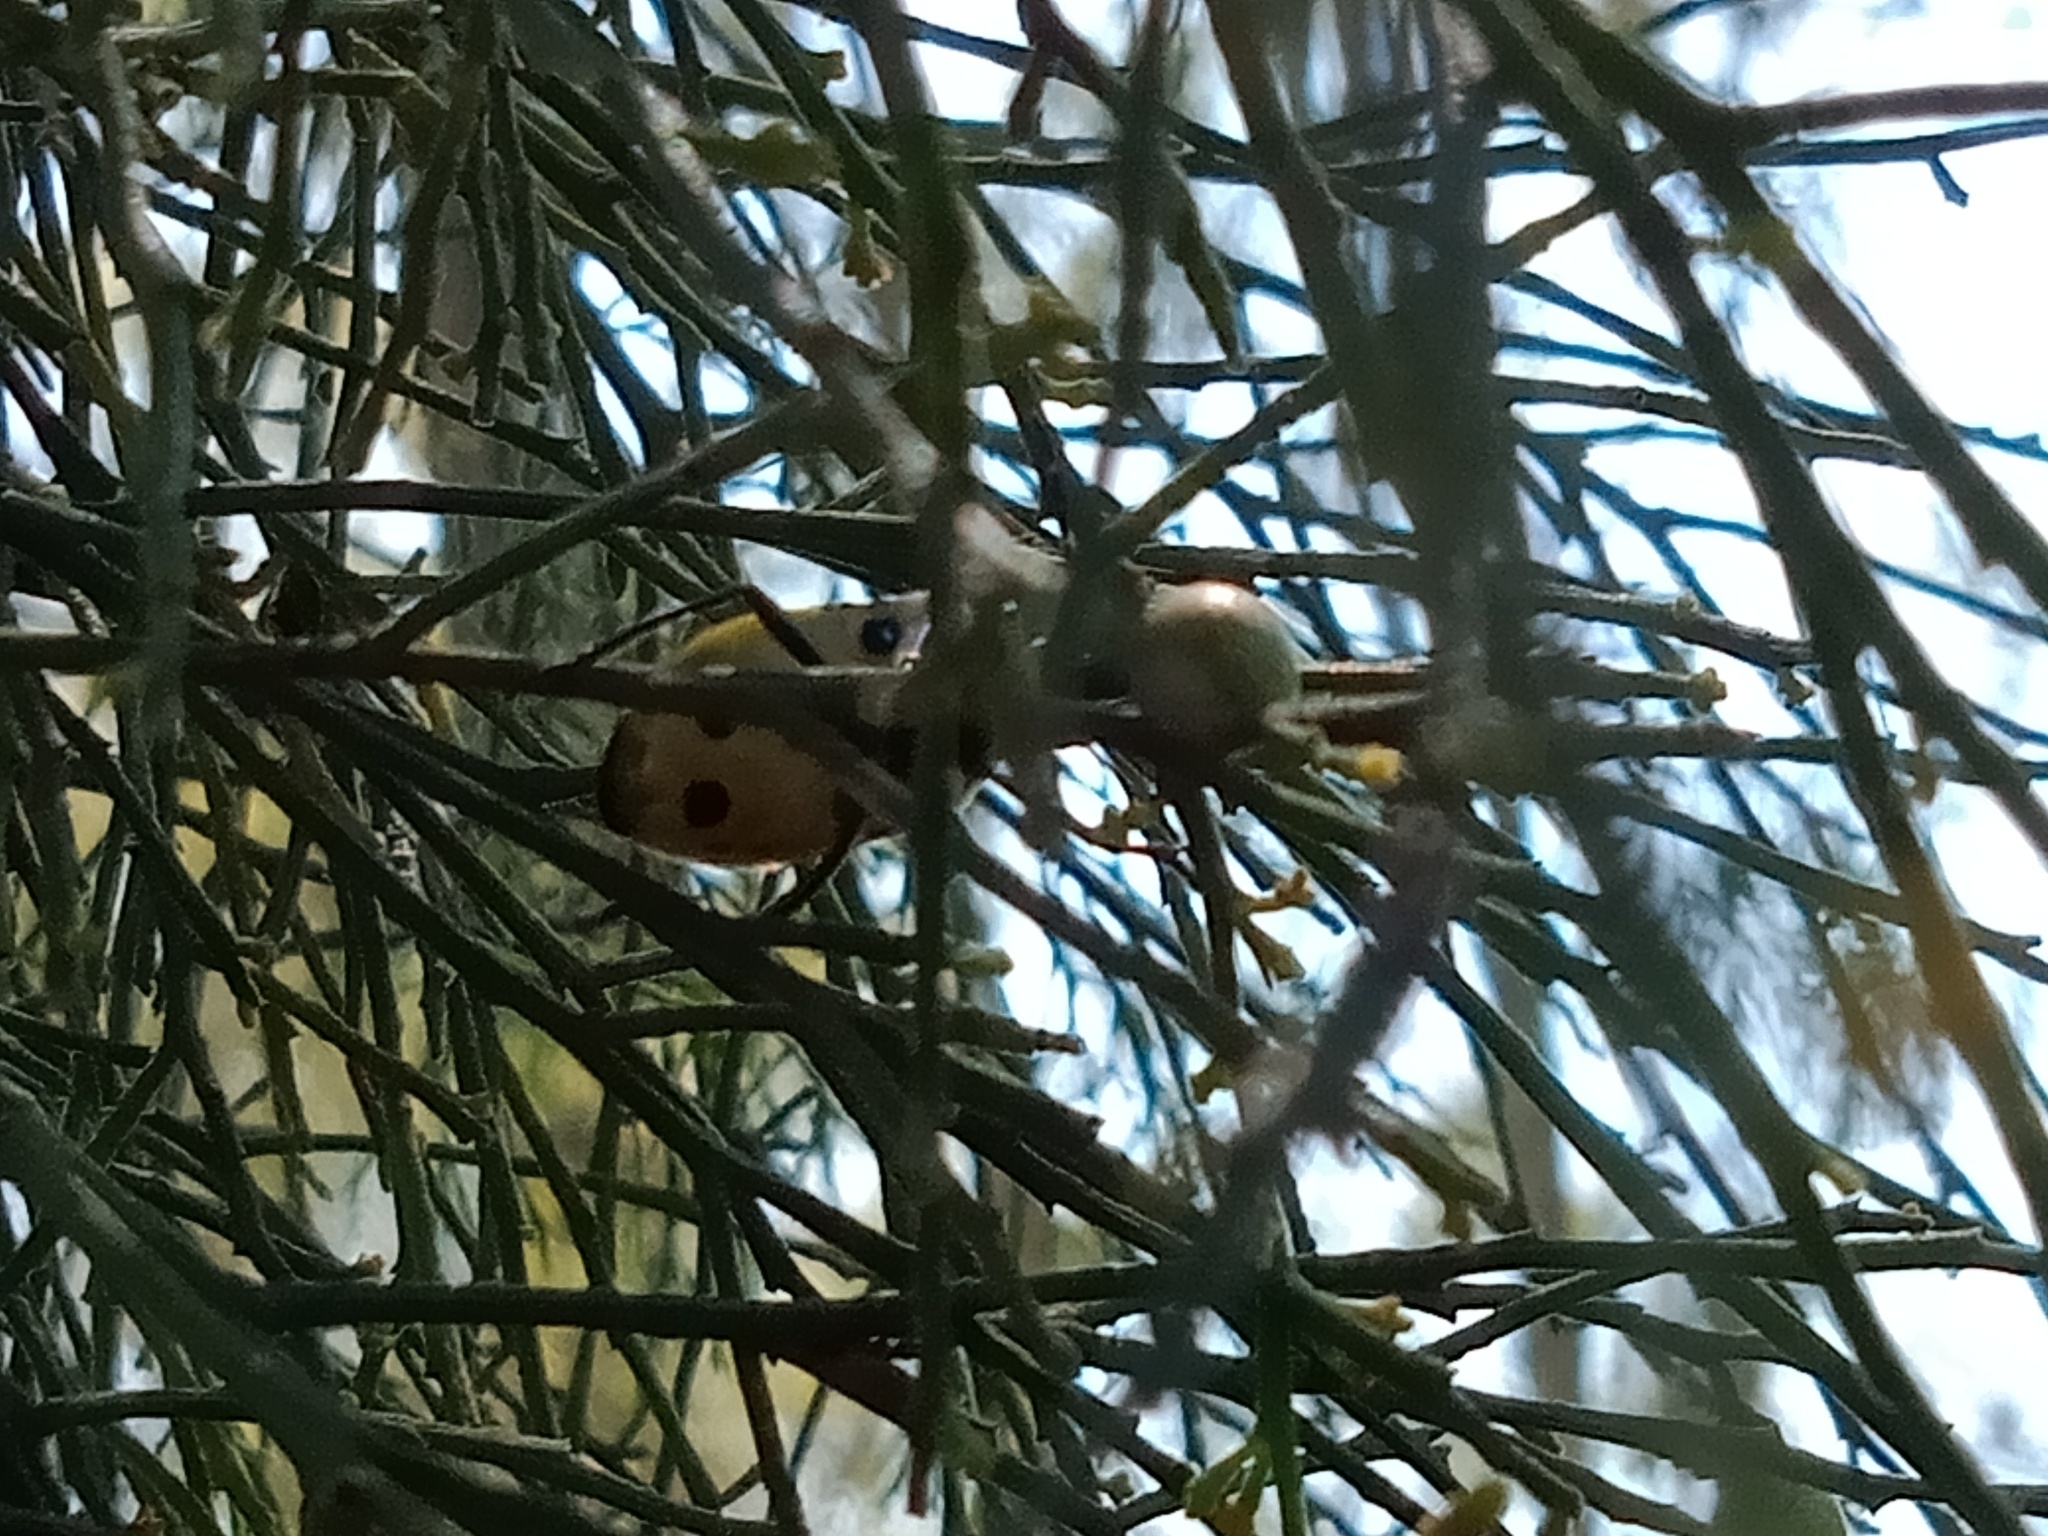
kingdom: Animalia
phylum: Arthropoda
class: Insecta
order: Hemiptera
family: Pentatomidae
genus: Commius
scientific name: Commius
